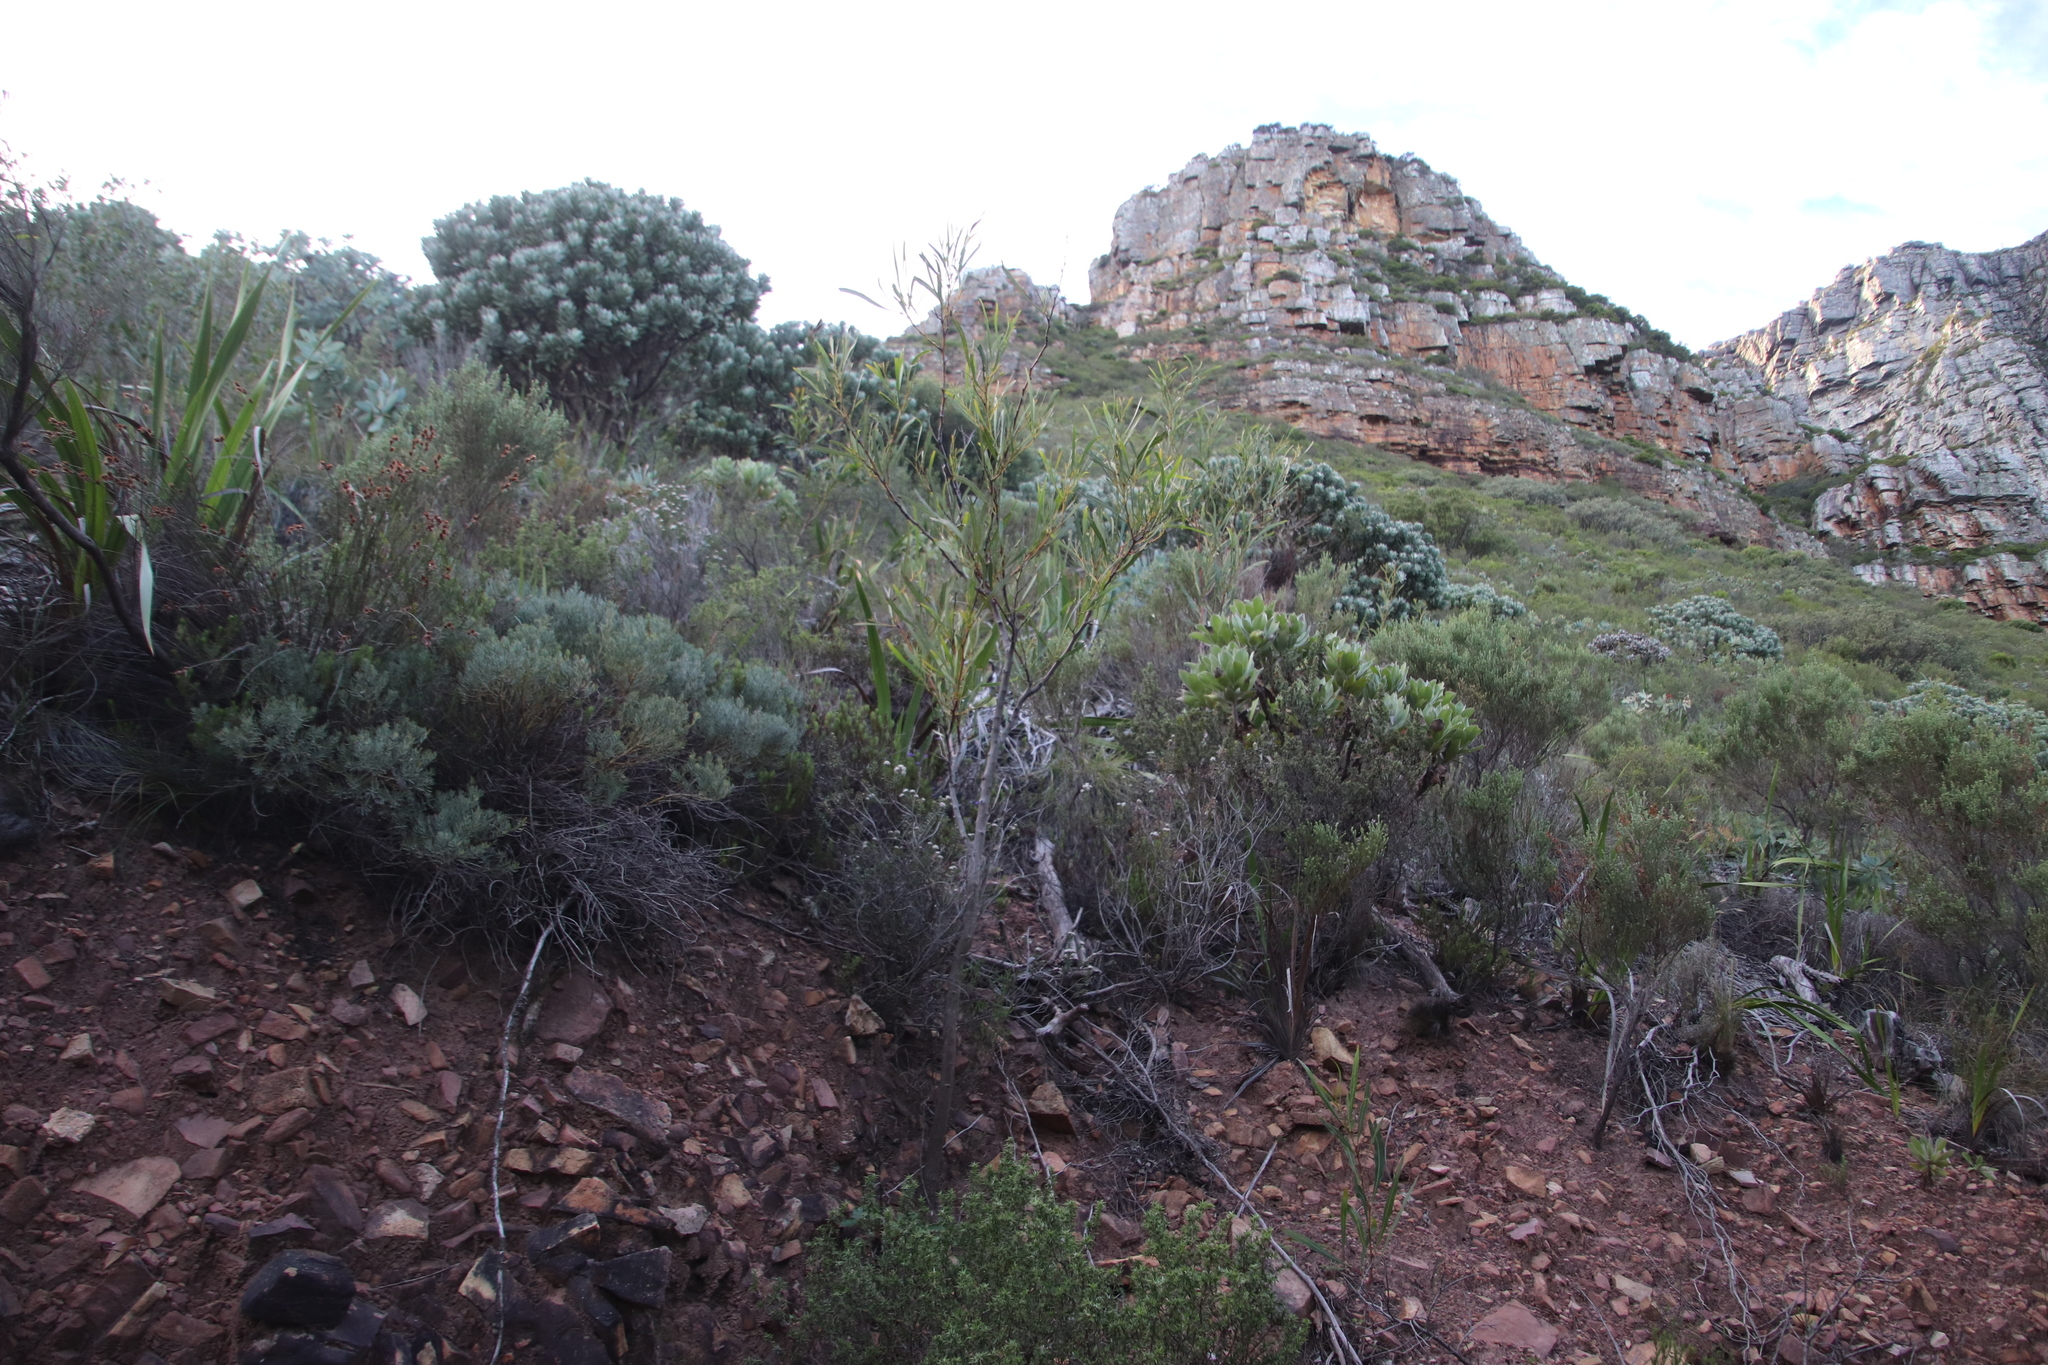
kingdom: Plantae
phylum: Tracheophyta
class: Magnoliopsida
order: Fabales
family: Fabaceae
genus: Acacia
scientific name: Acacia saligna
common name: Orange wattle
